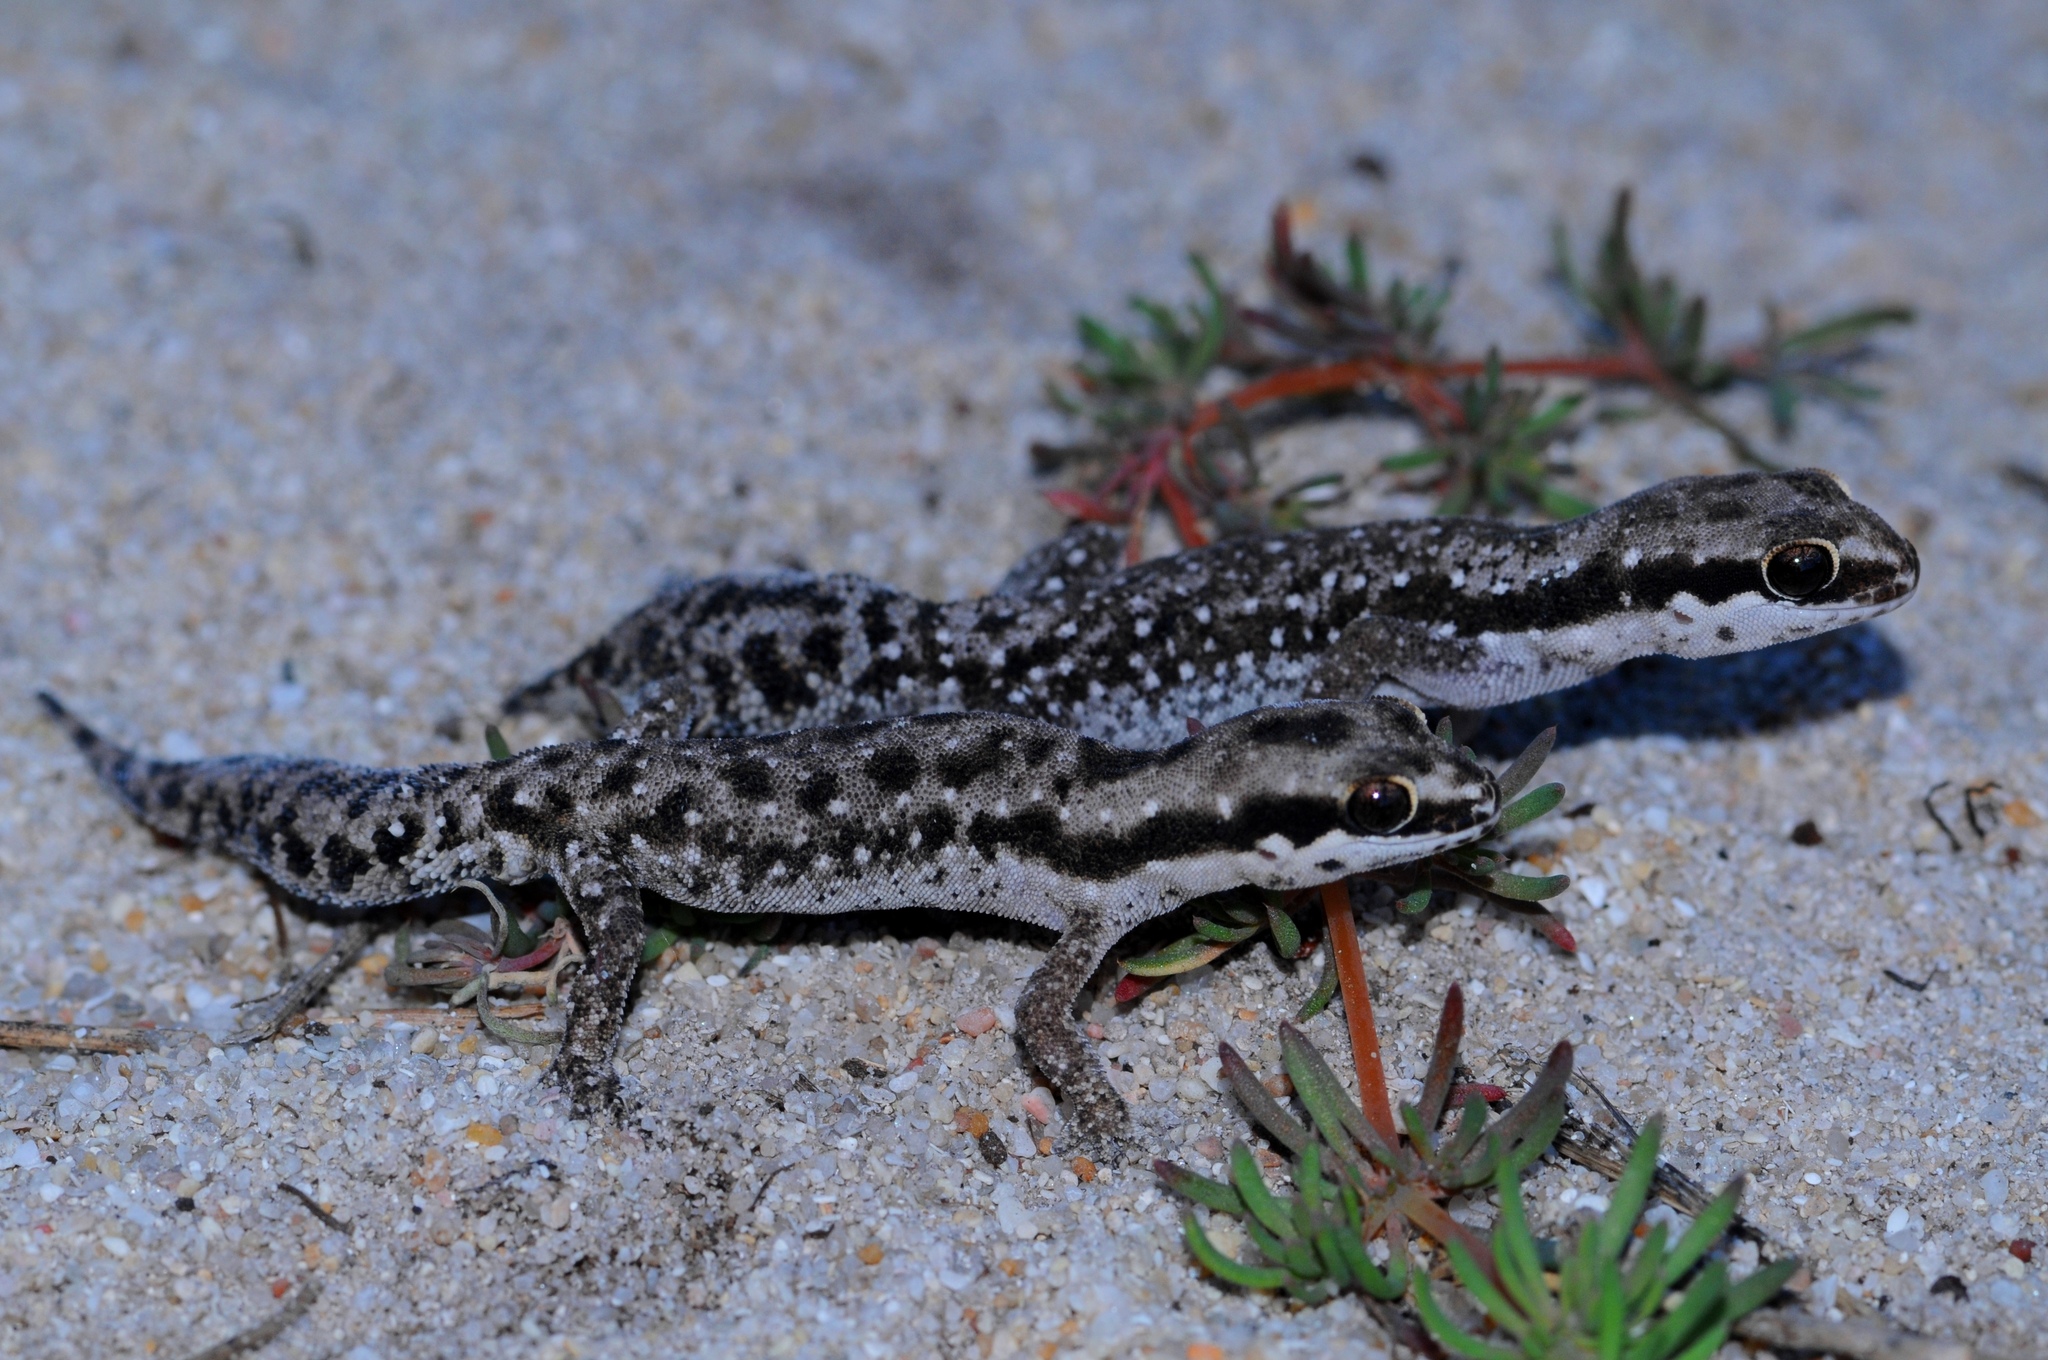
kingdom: Animalia
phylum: Chordata
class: Squamata
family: Gekkonidae
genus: Pachydactylus
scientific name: Pachydactylus geitje
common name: Ocellated thick-toed gecko
